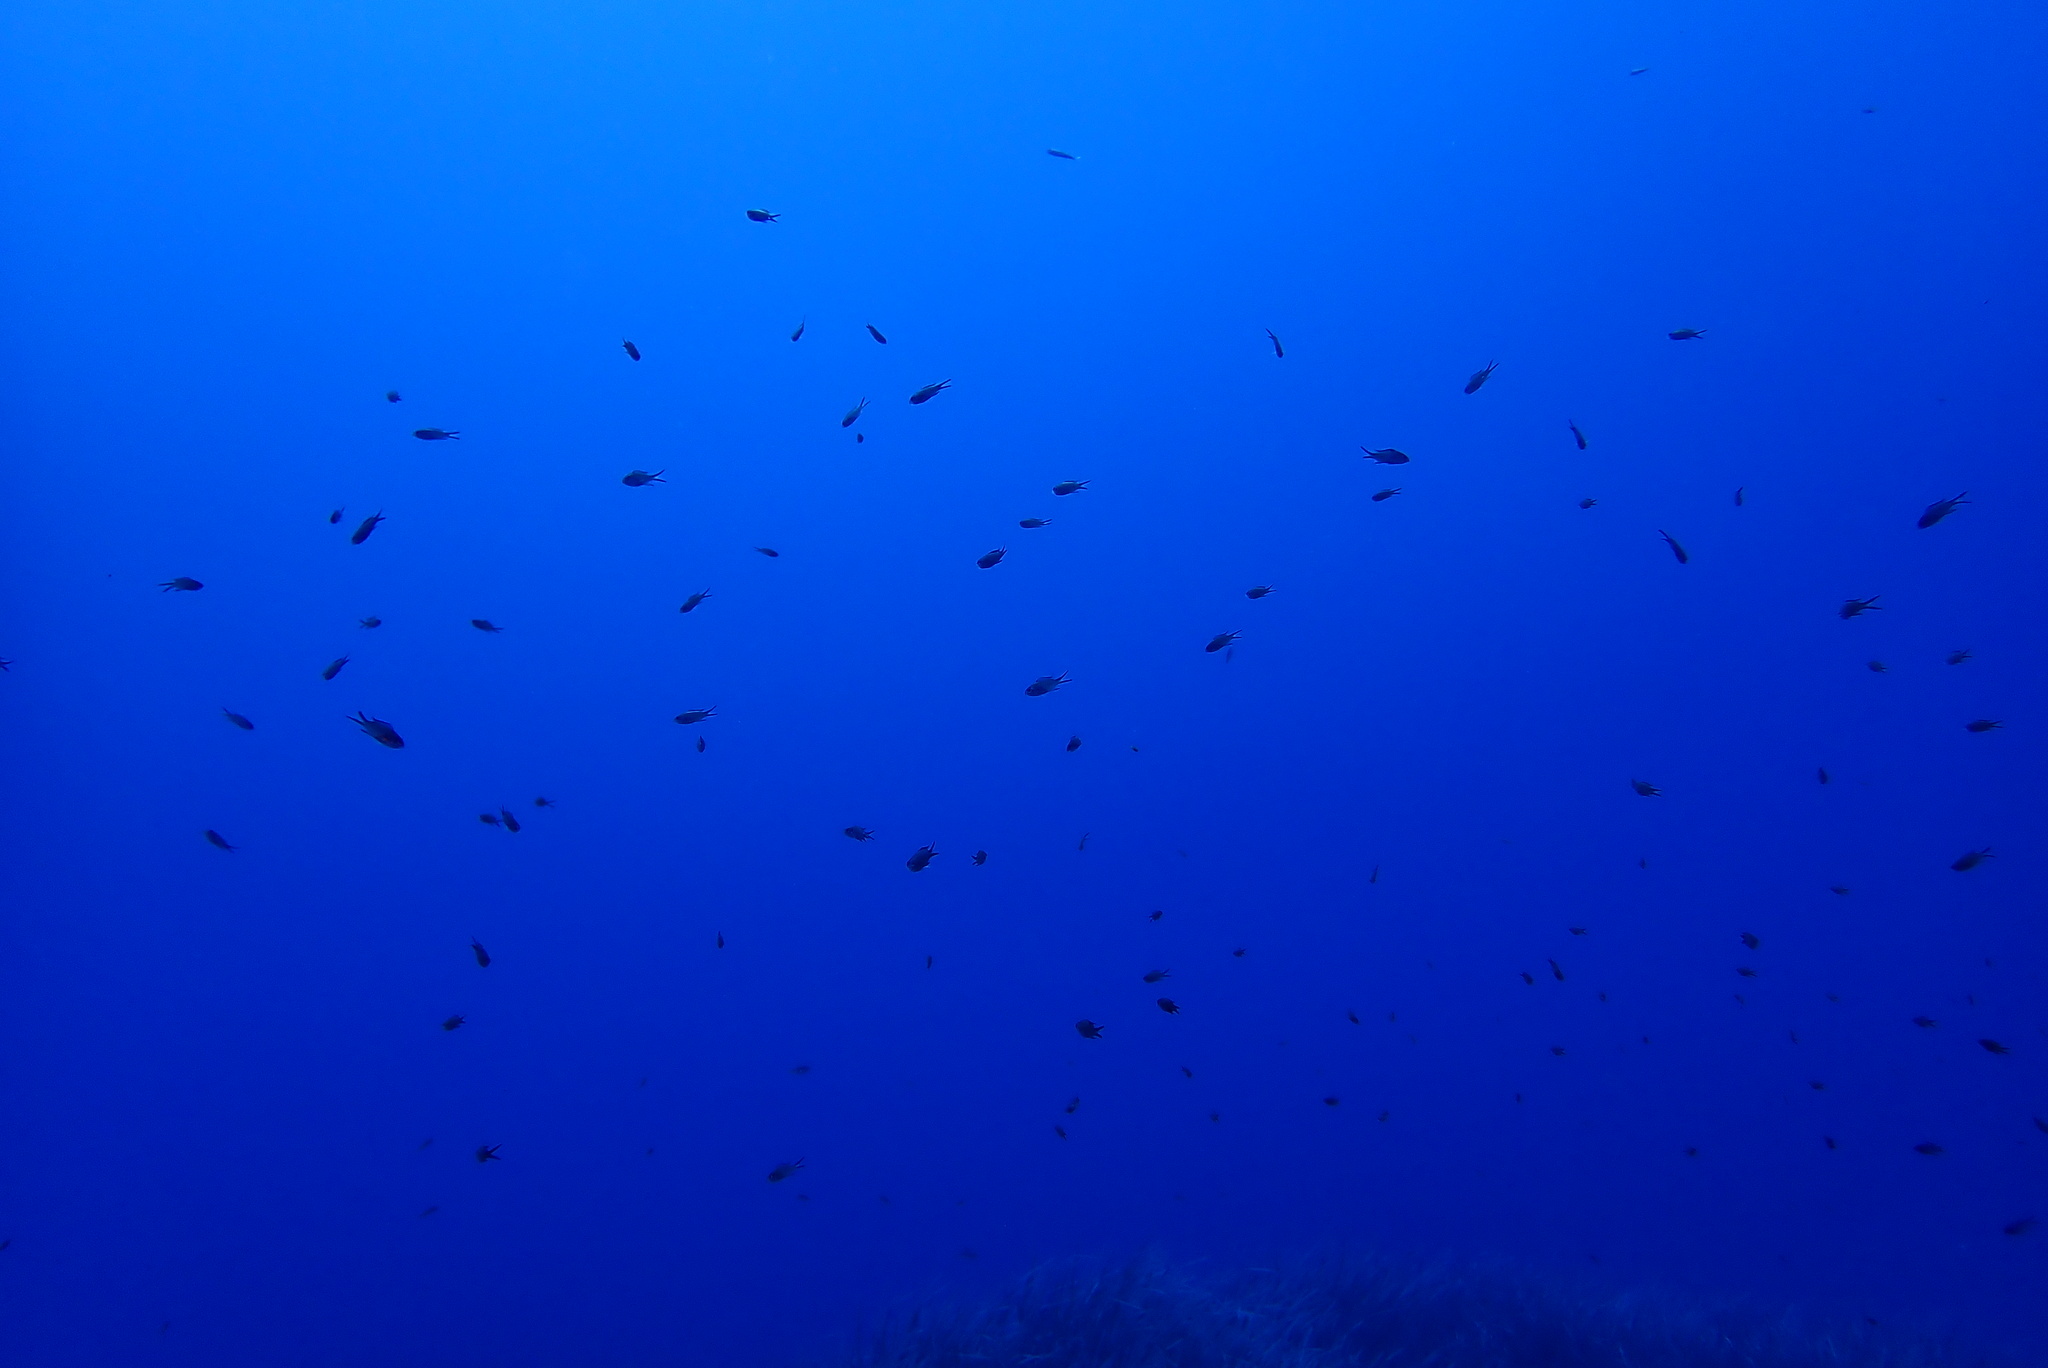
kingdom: Animalia
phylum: Chordata
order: Perciformes
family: Pomacentridae
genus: Chromis
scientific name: Chromis chromis
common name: Damselfish
